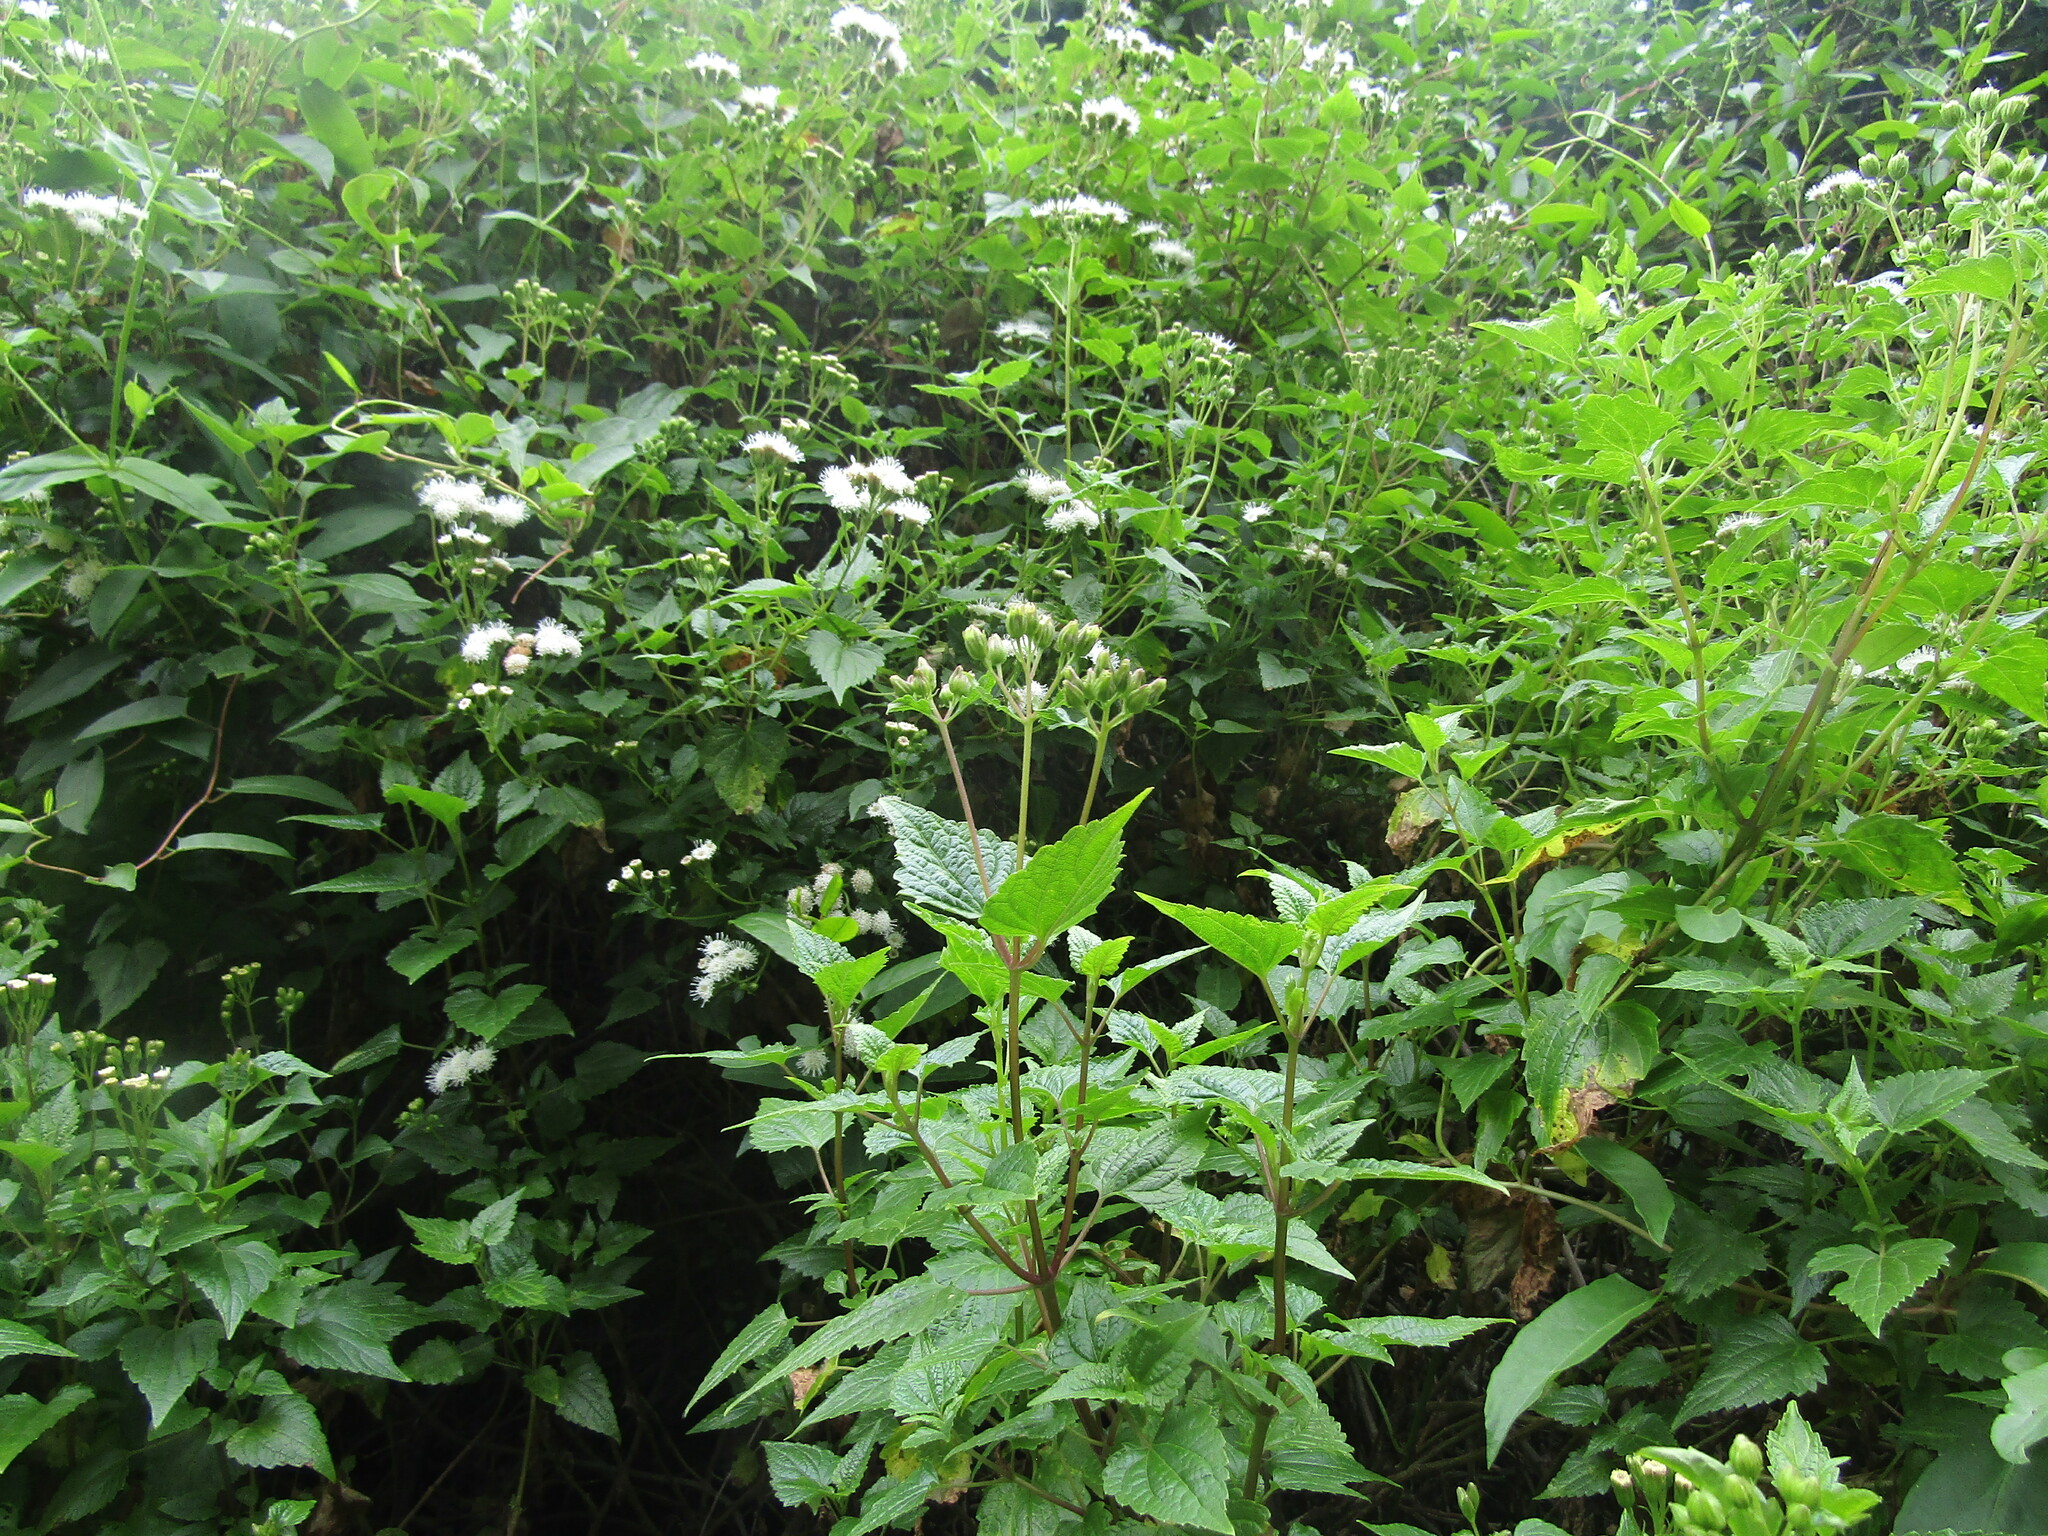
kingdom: Plantae
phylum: Tracheophyta
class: Magnoliopsida
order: Asterales
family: Asteraceae
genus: Ageratina
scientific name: Ageratina glechonophylla
